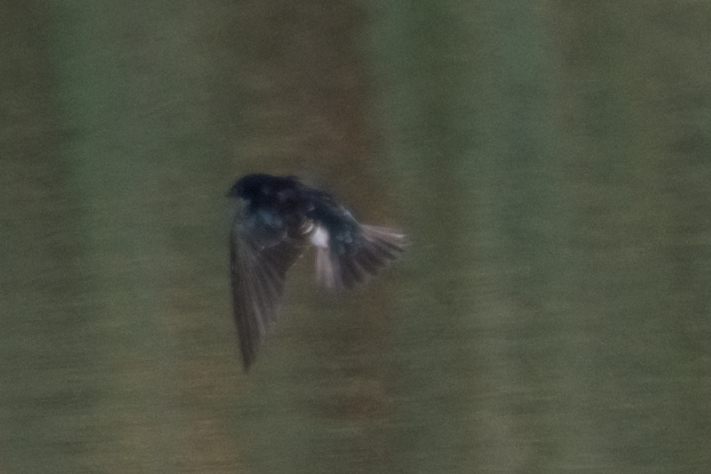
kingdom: Animalia
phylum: Chordata
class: Aves
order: Passeriformes
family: Hirundinidae
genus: Tachycineta
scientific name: Tachycineta bicolor
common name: Tree swallow
